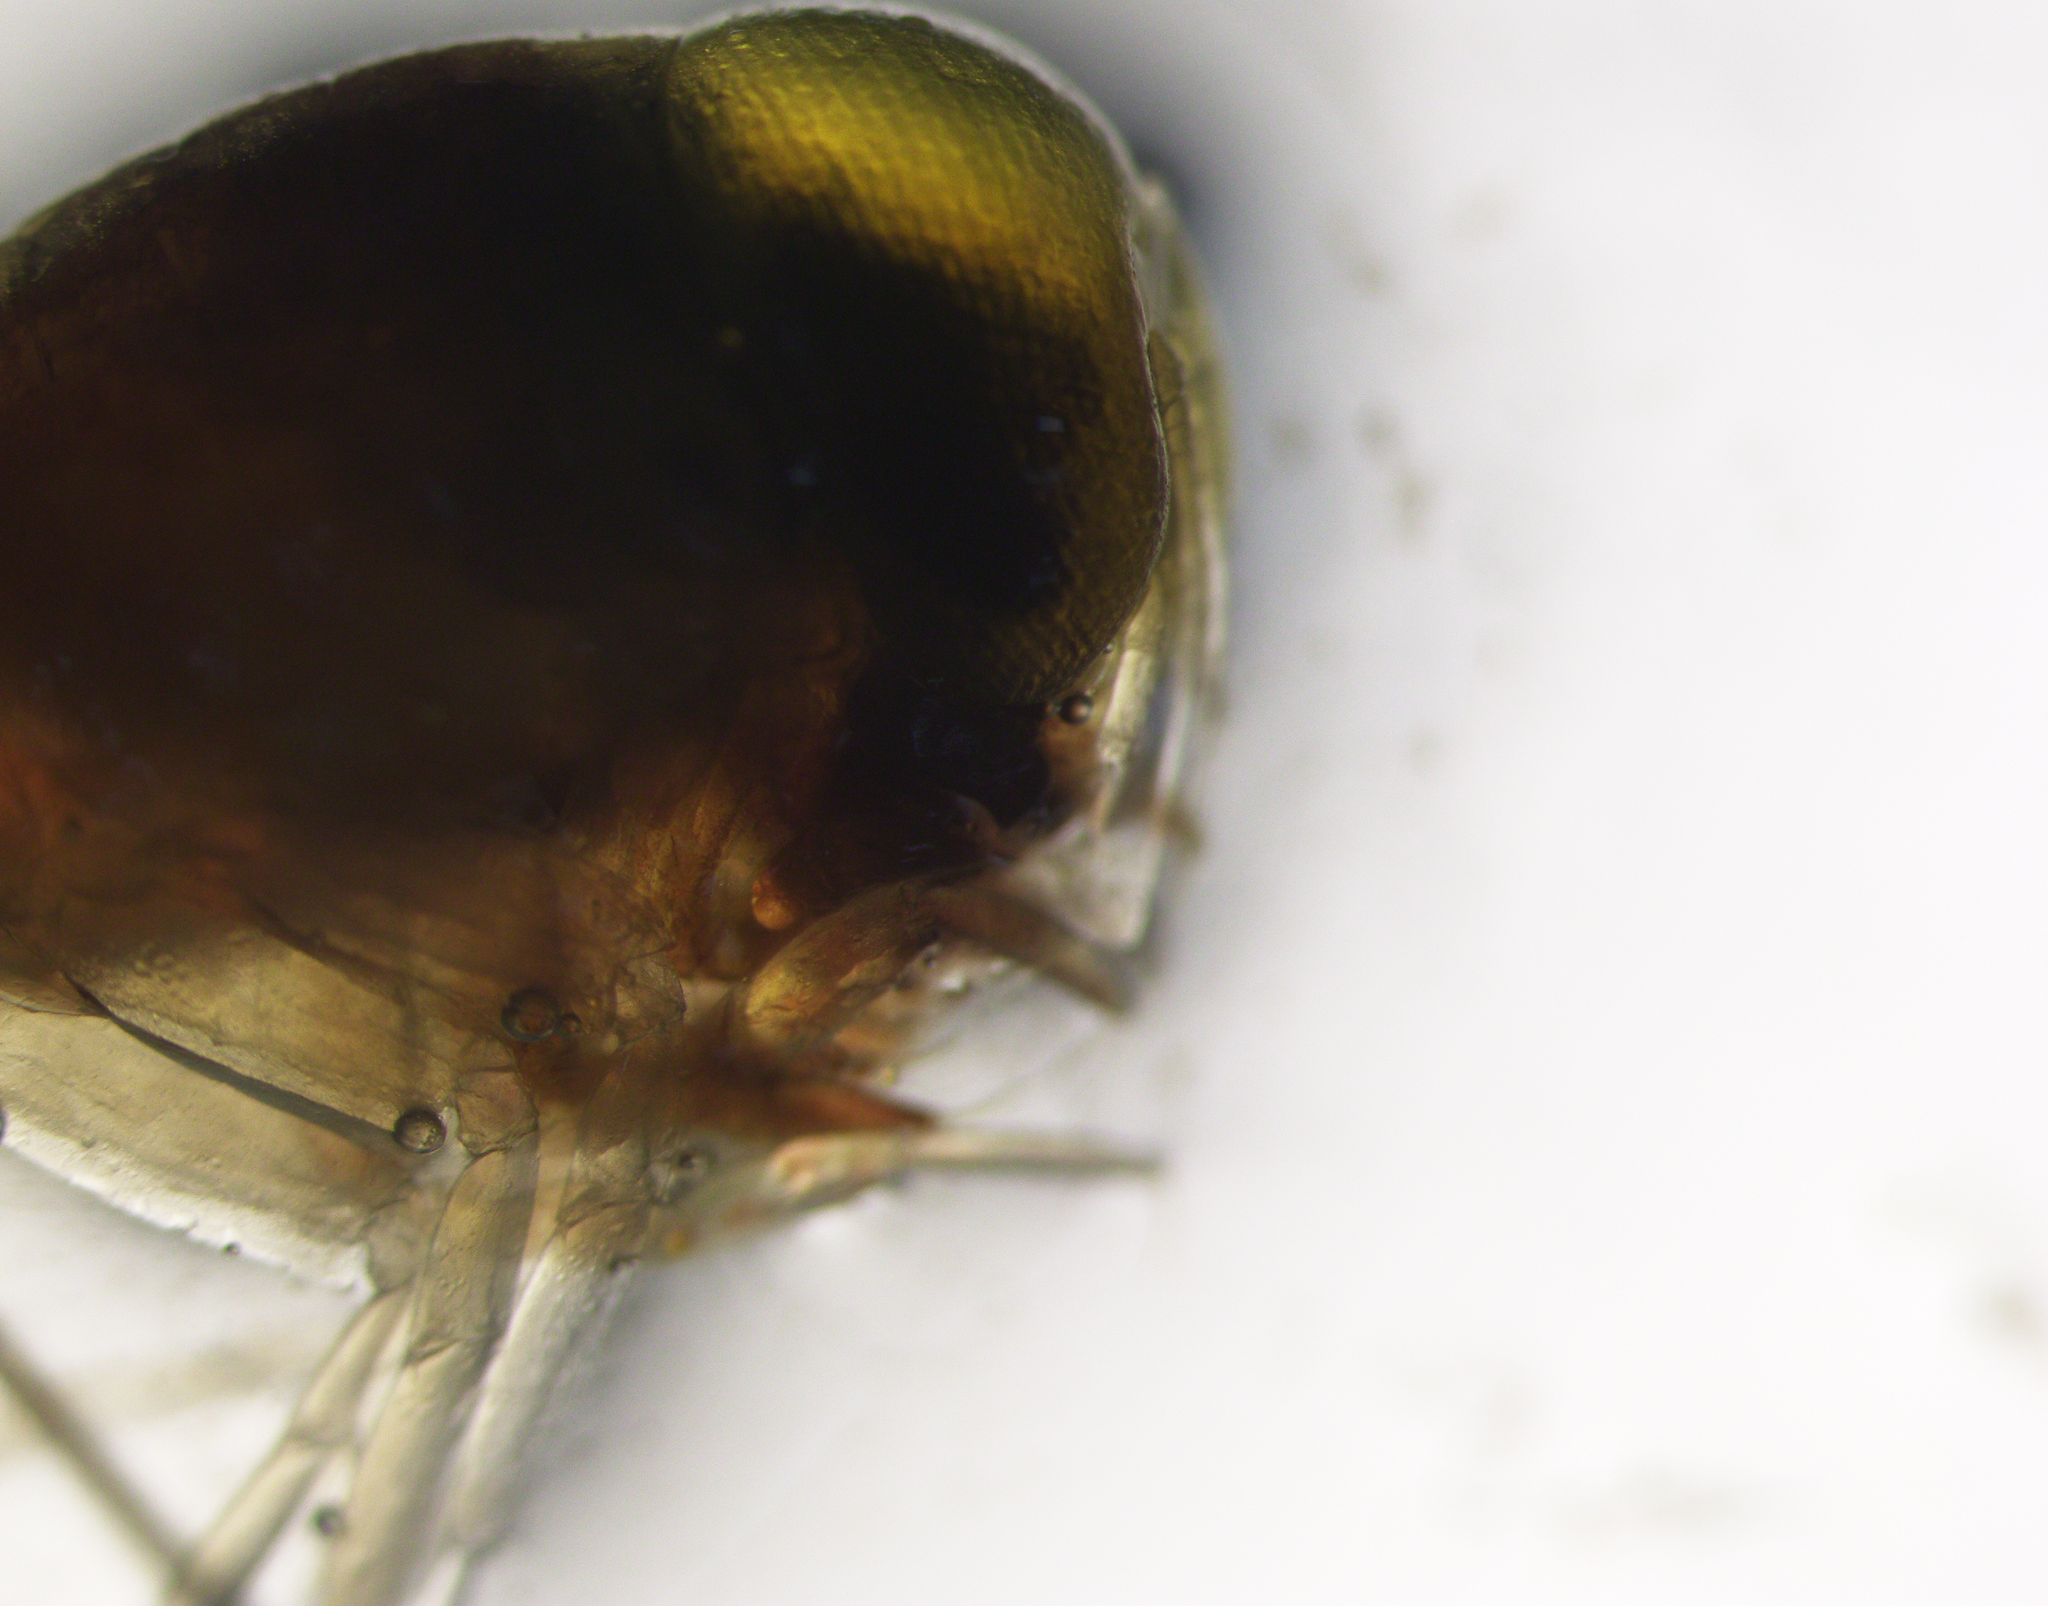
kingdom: Animalia
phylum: Arthropoda
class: Malacostraca
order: Amphipoda
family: Hyperiidae
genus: Themisto
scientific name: Themisto abyssorum
